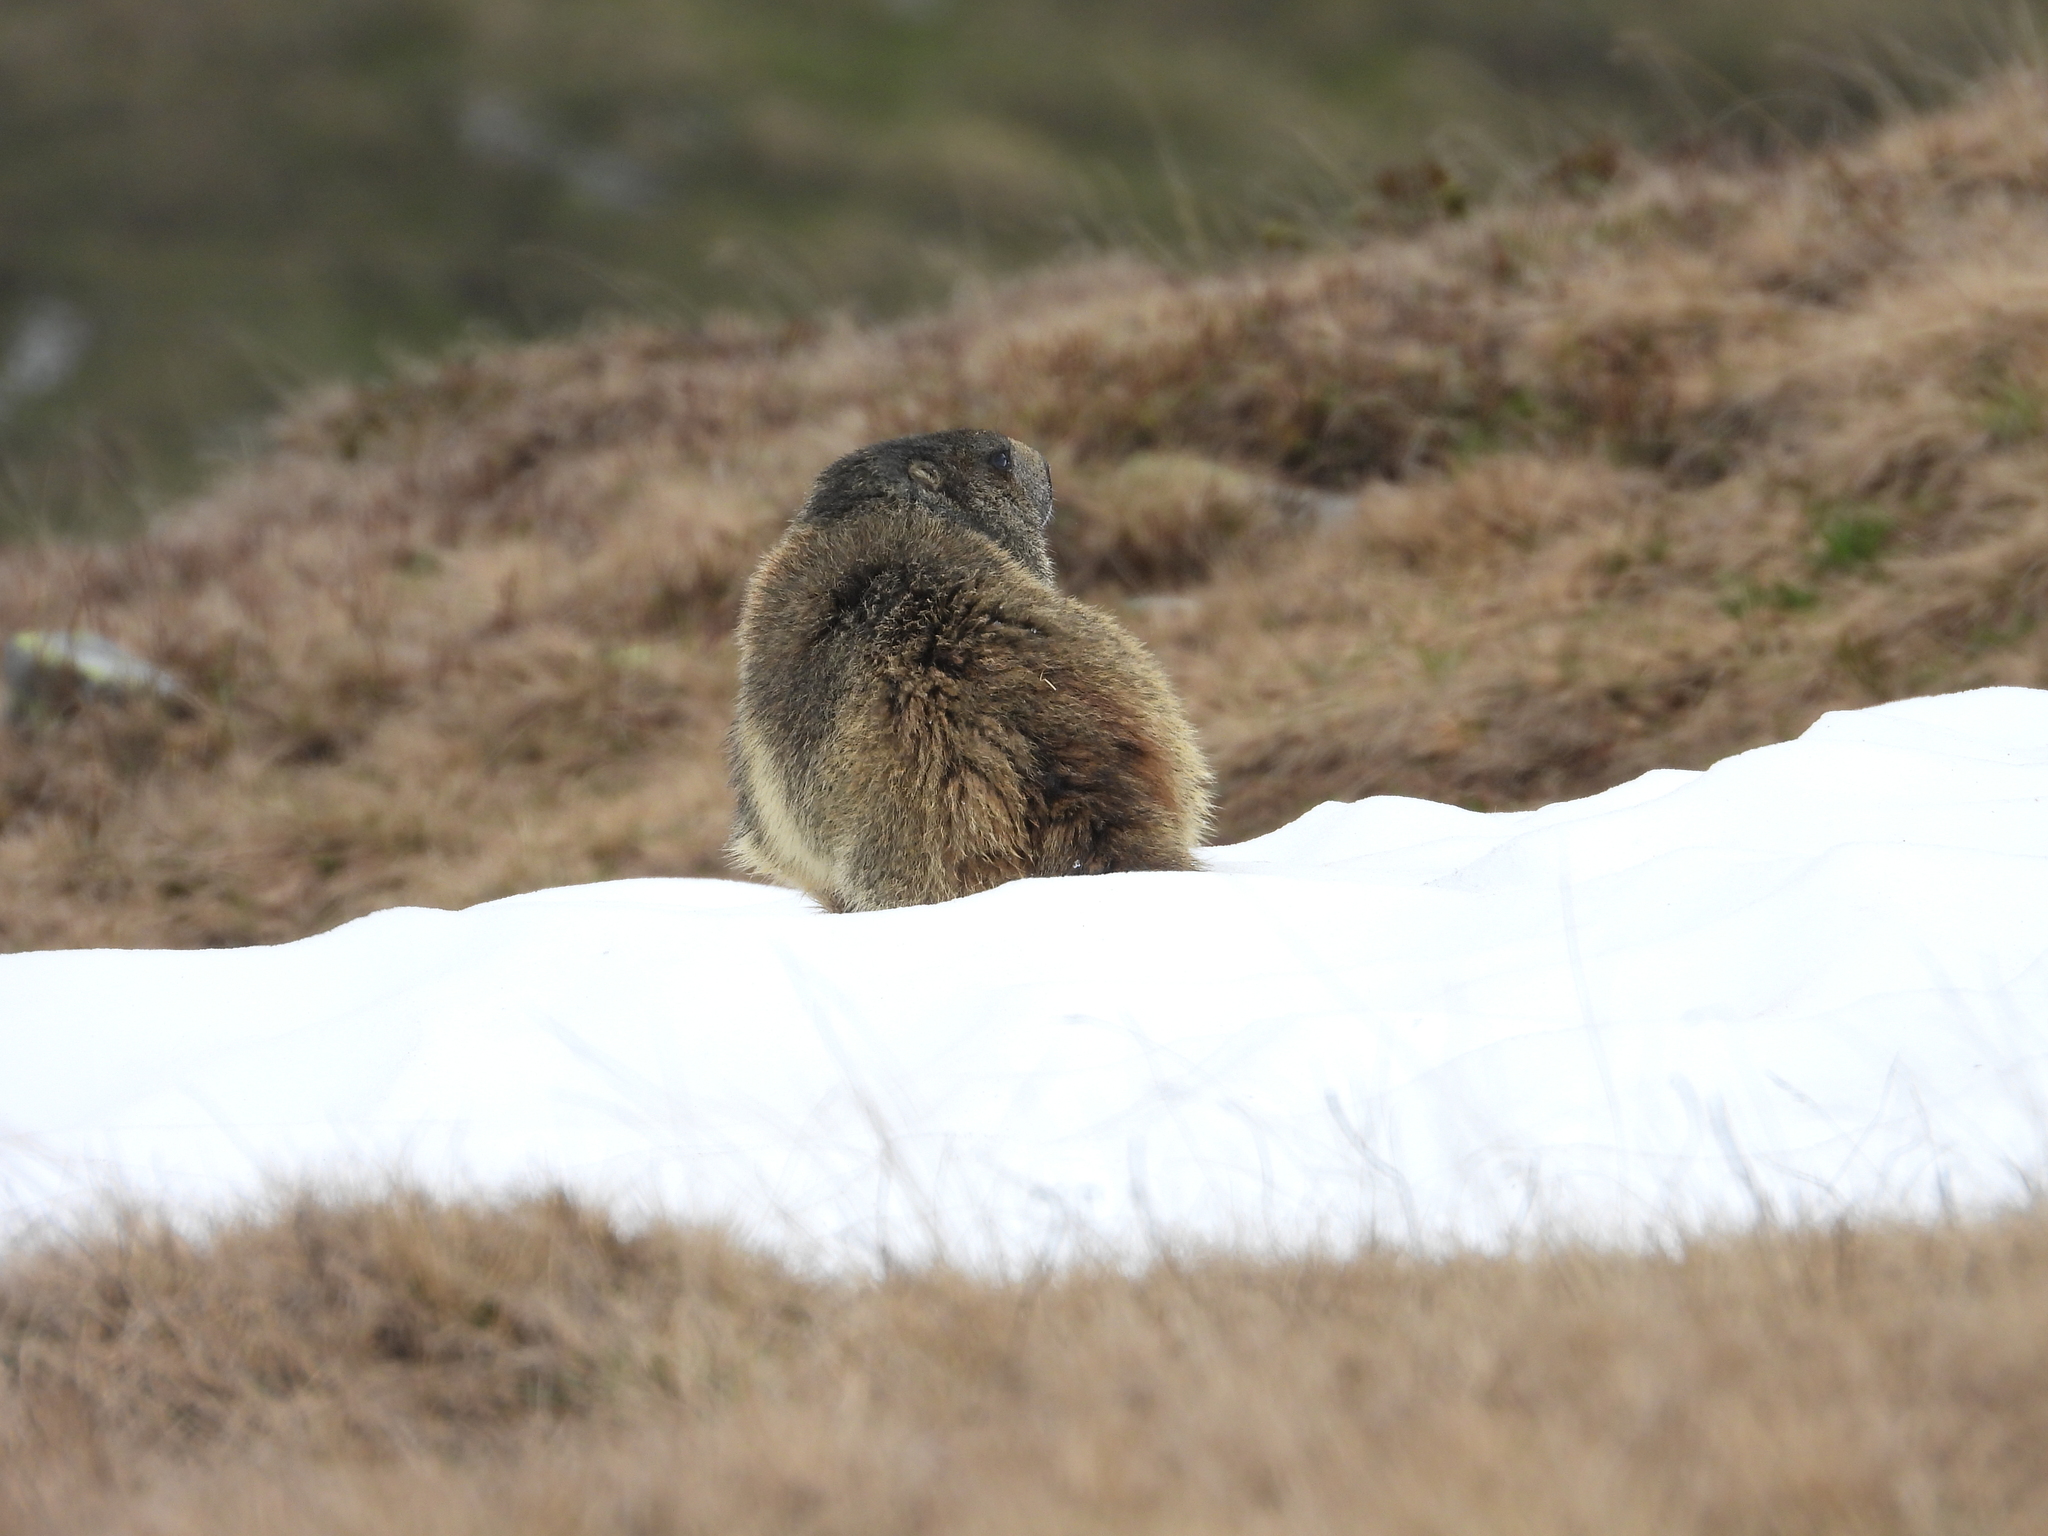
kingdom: Animalia
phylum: Chordata
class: Mammalia
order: Rodentia
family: Sciuridae
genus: Marmota
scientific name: Marmota marmota
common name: Alpine marmot
